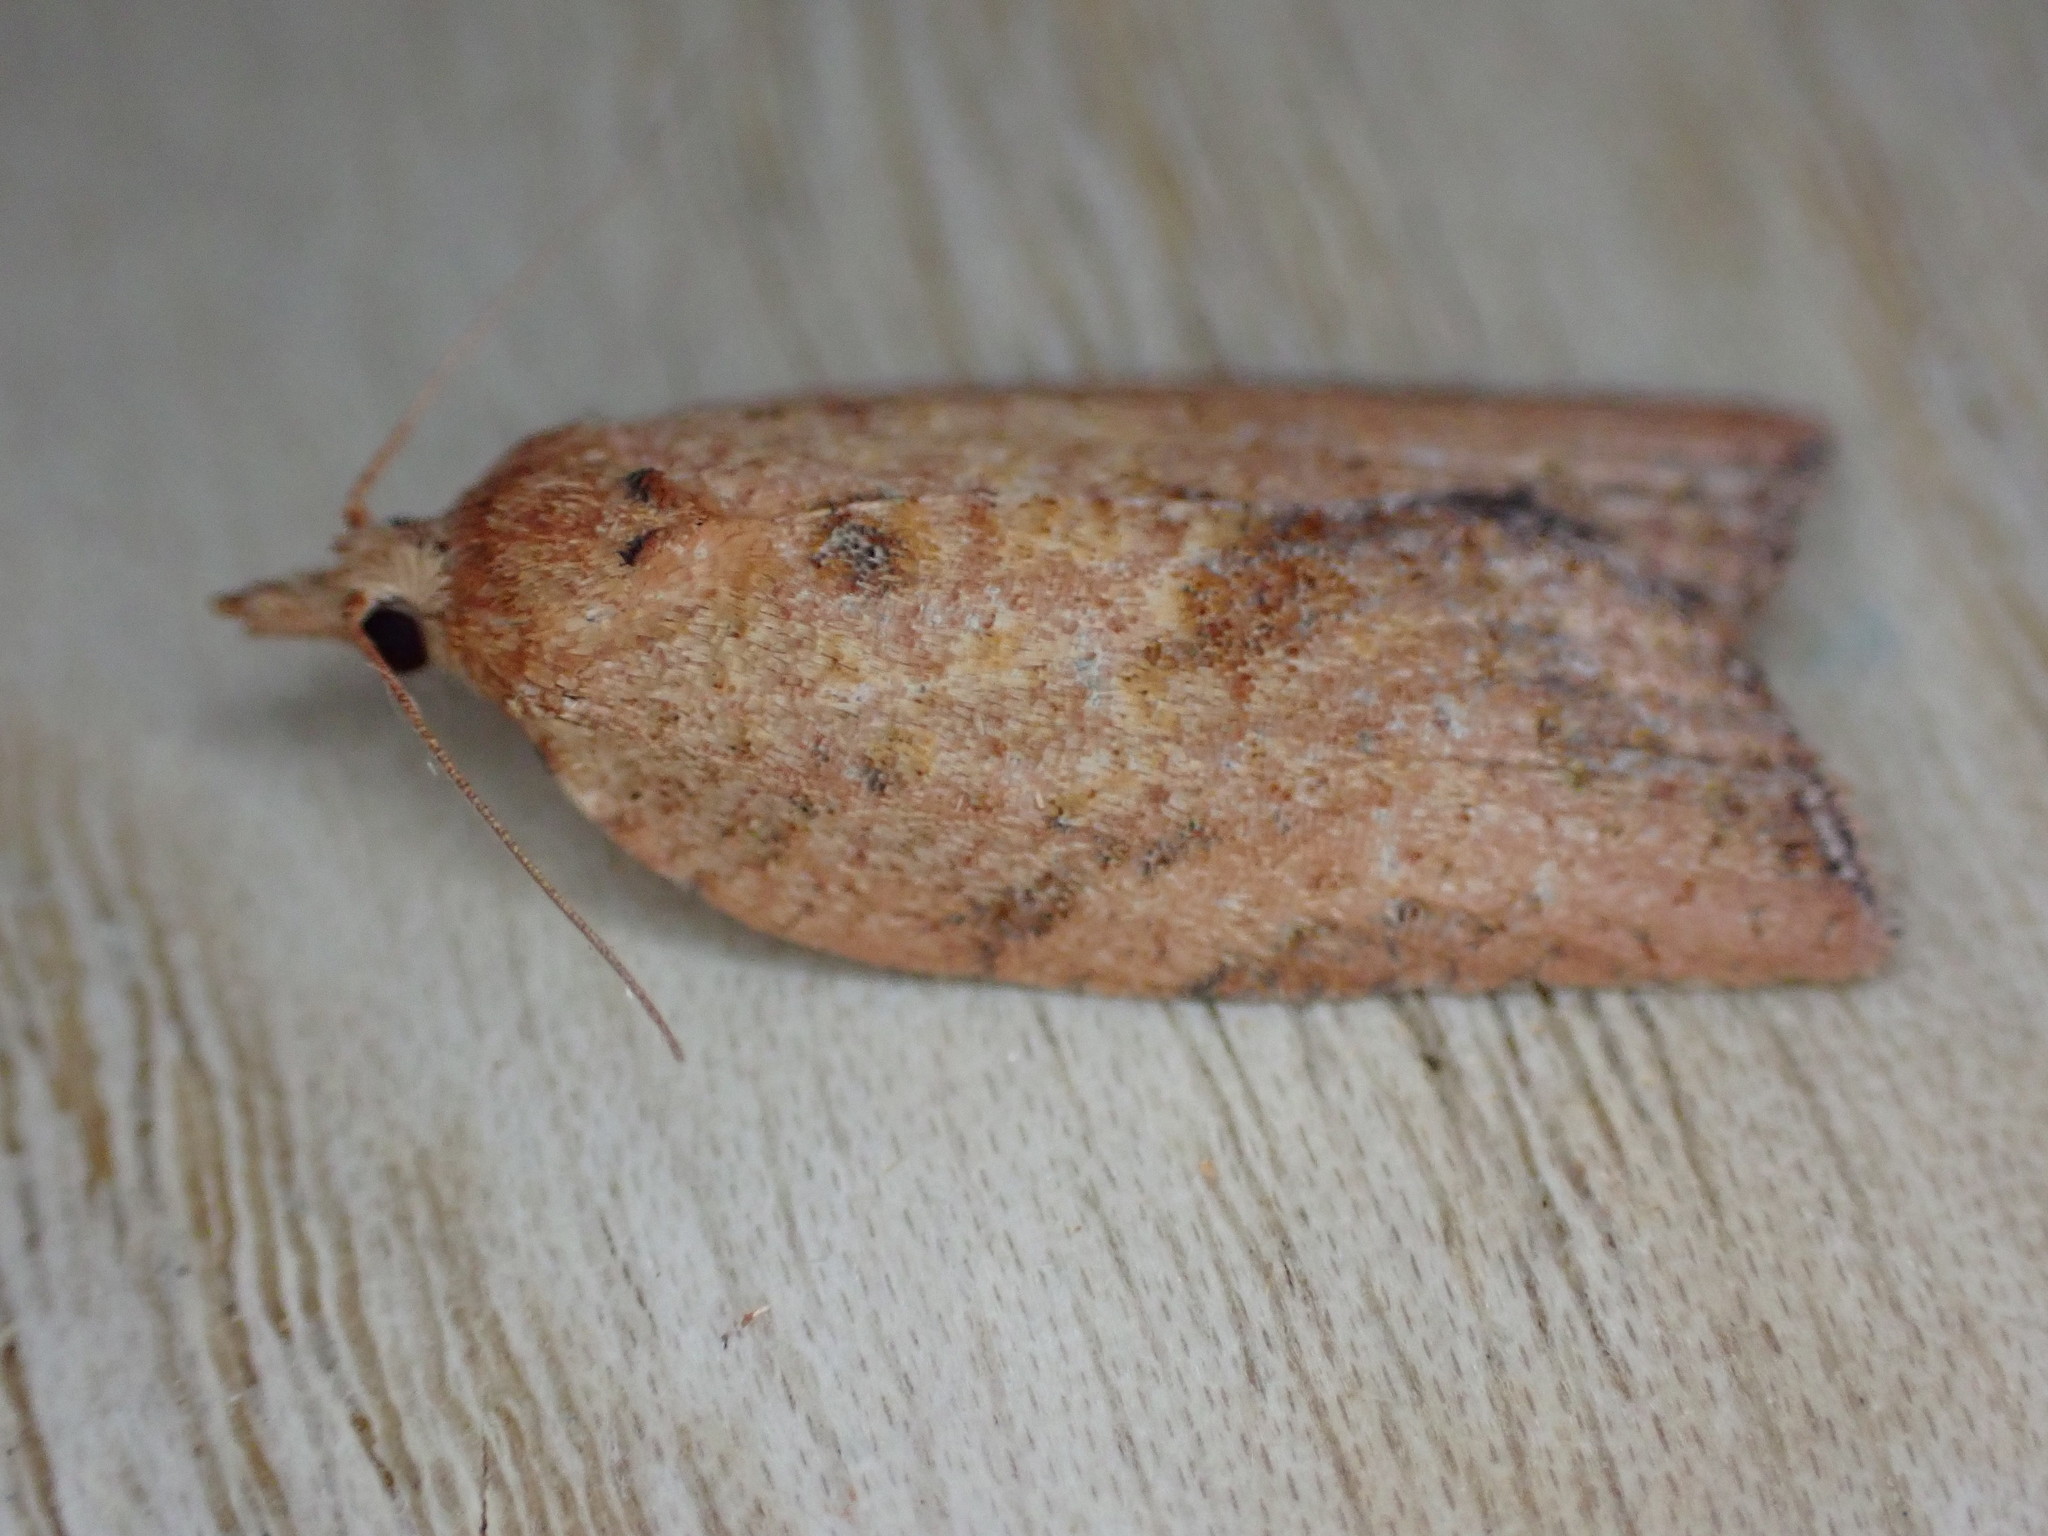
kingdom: Animalia
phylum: Arthropoda
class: Insecta
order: Lepidoptera
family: Tortricidae
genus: Epiphyas
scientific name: Epiphyas postvittana
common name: Light brown apple moth
